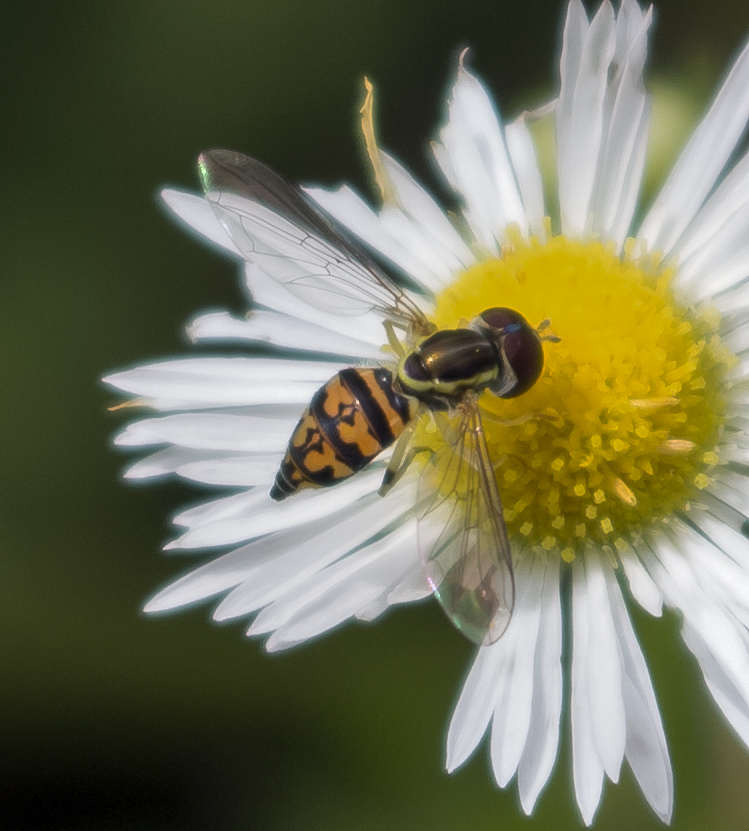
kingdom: Animalia
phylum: Arthropoda
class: Insecta
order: Diptera
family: Syrphidae
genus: Toxomerus
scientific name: Toxomerus geminatus
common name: Eastern calligrapher
